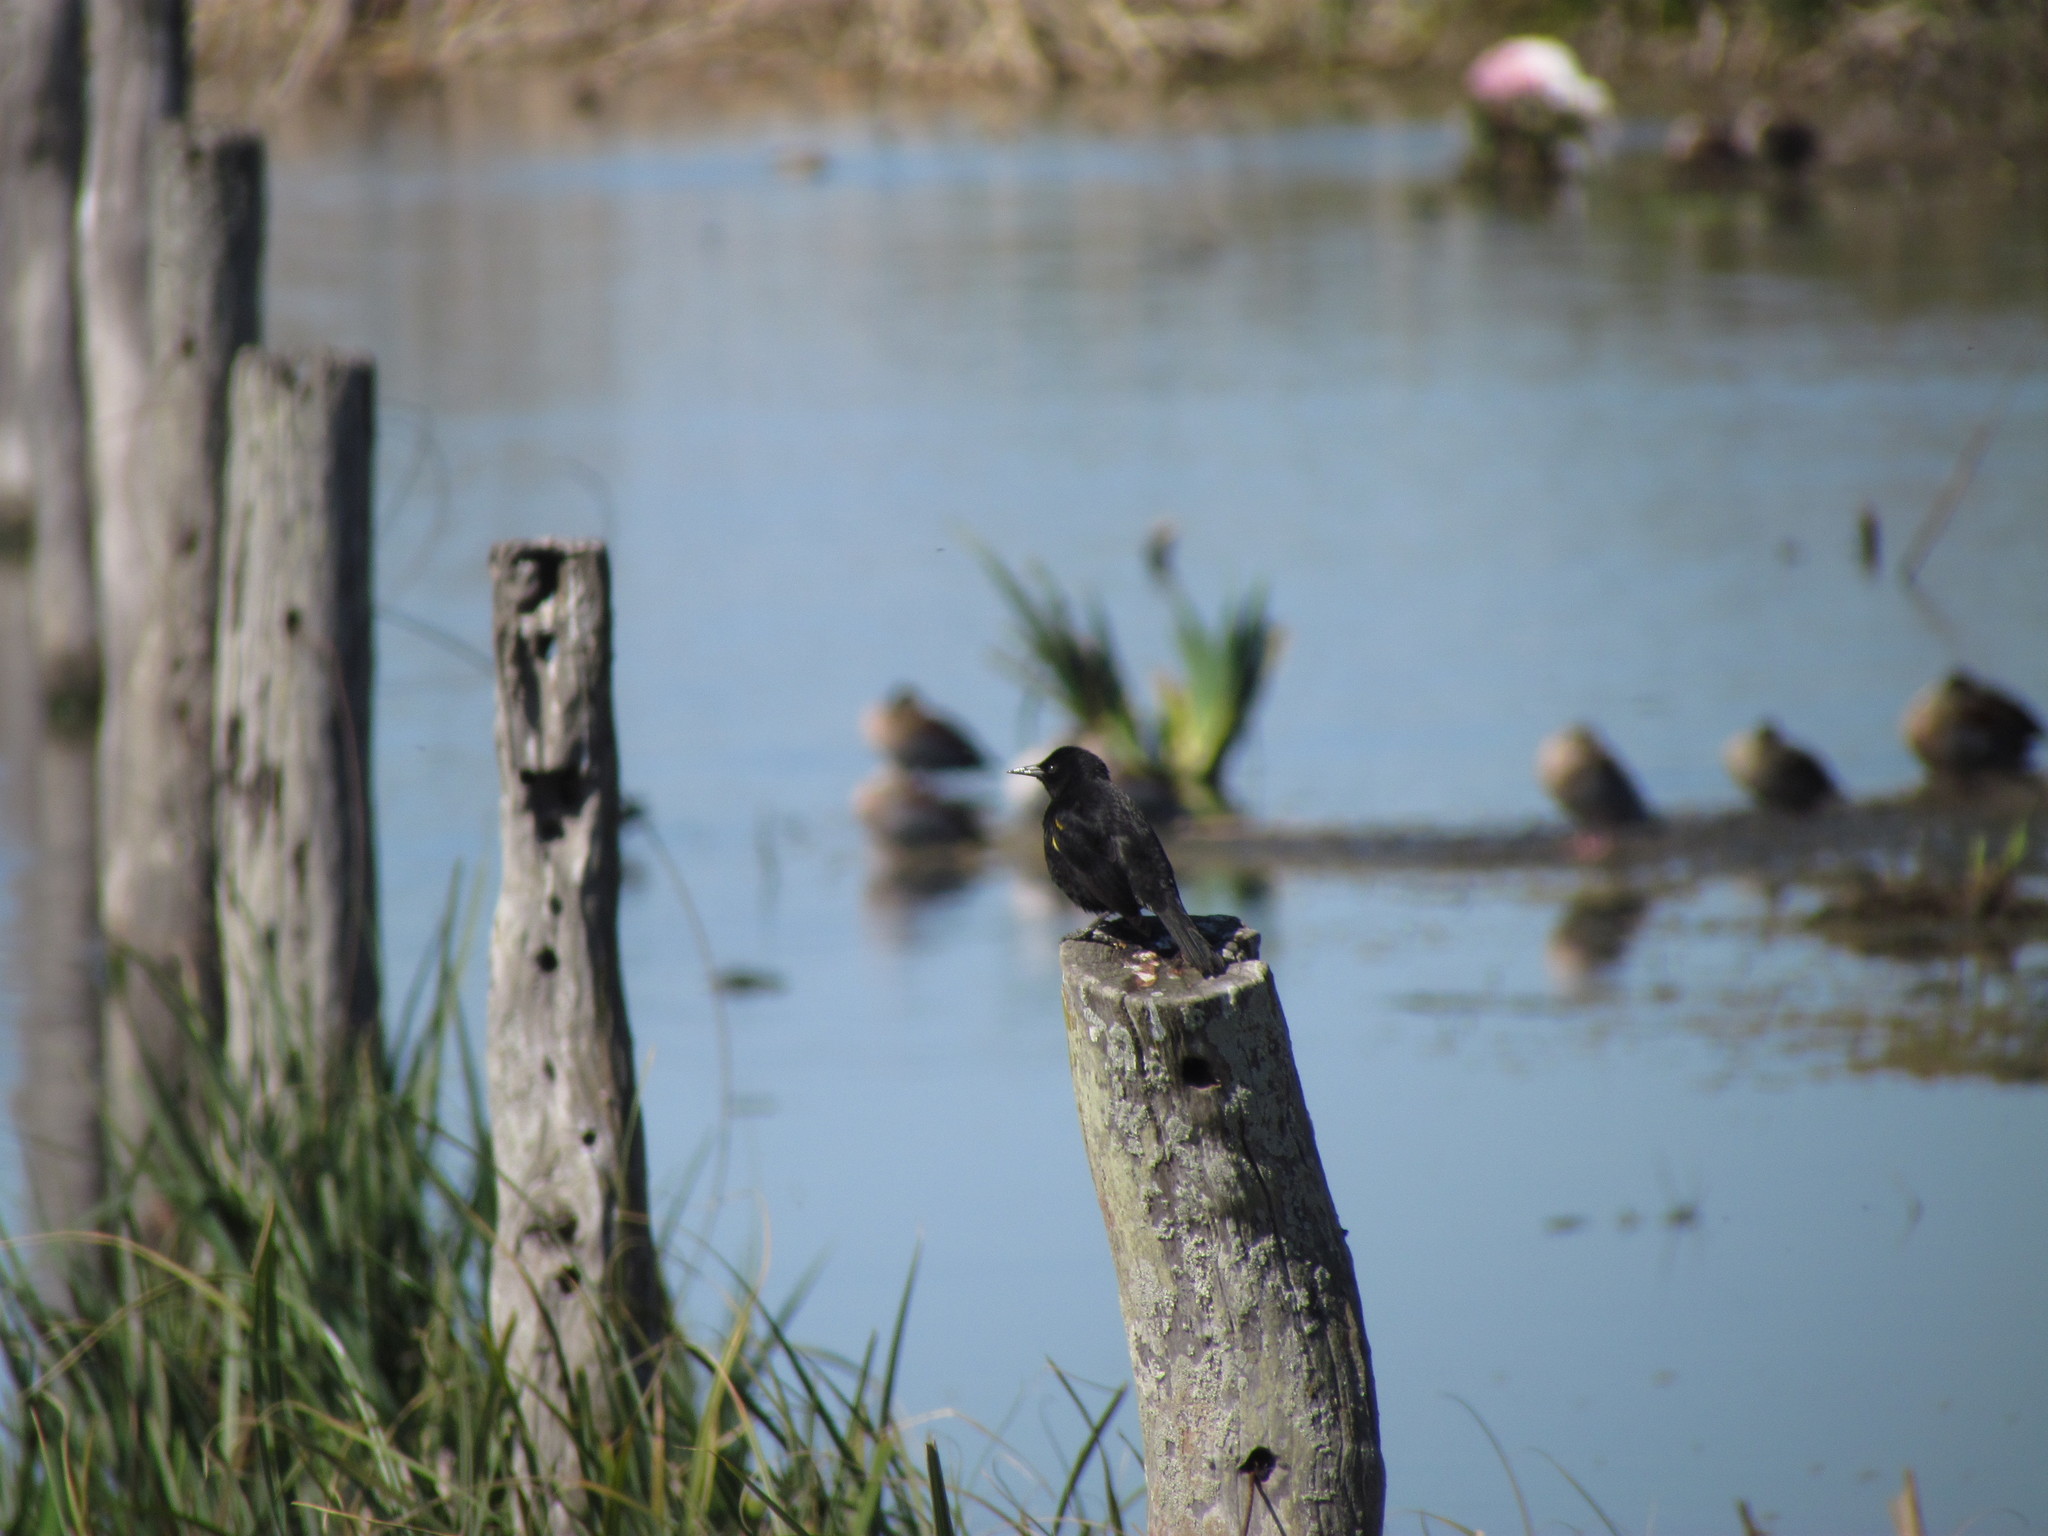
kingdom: Animalia
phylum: Chordata
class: Aves
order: Passeriformes
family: Icteridae
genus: Agelasticus
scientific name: Agelasticus thilius
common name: Yellow-winged blackbird
